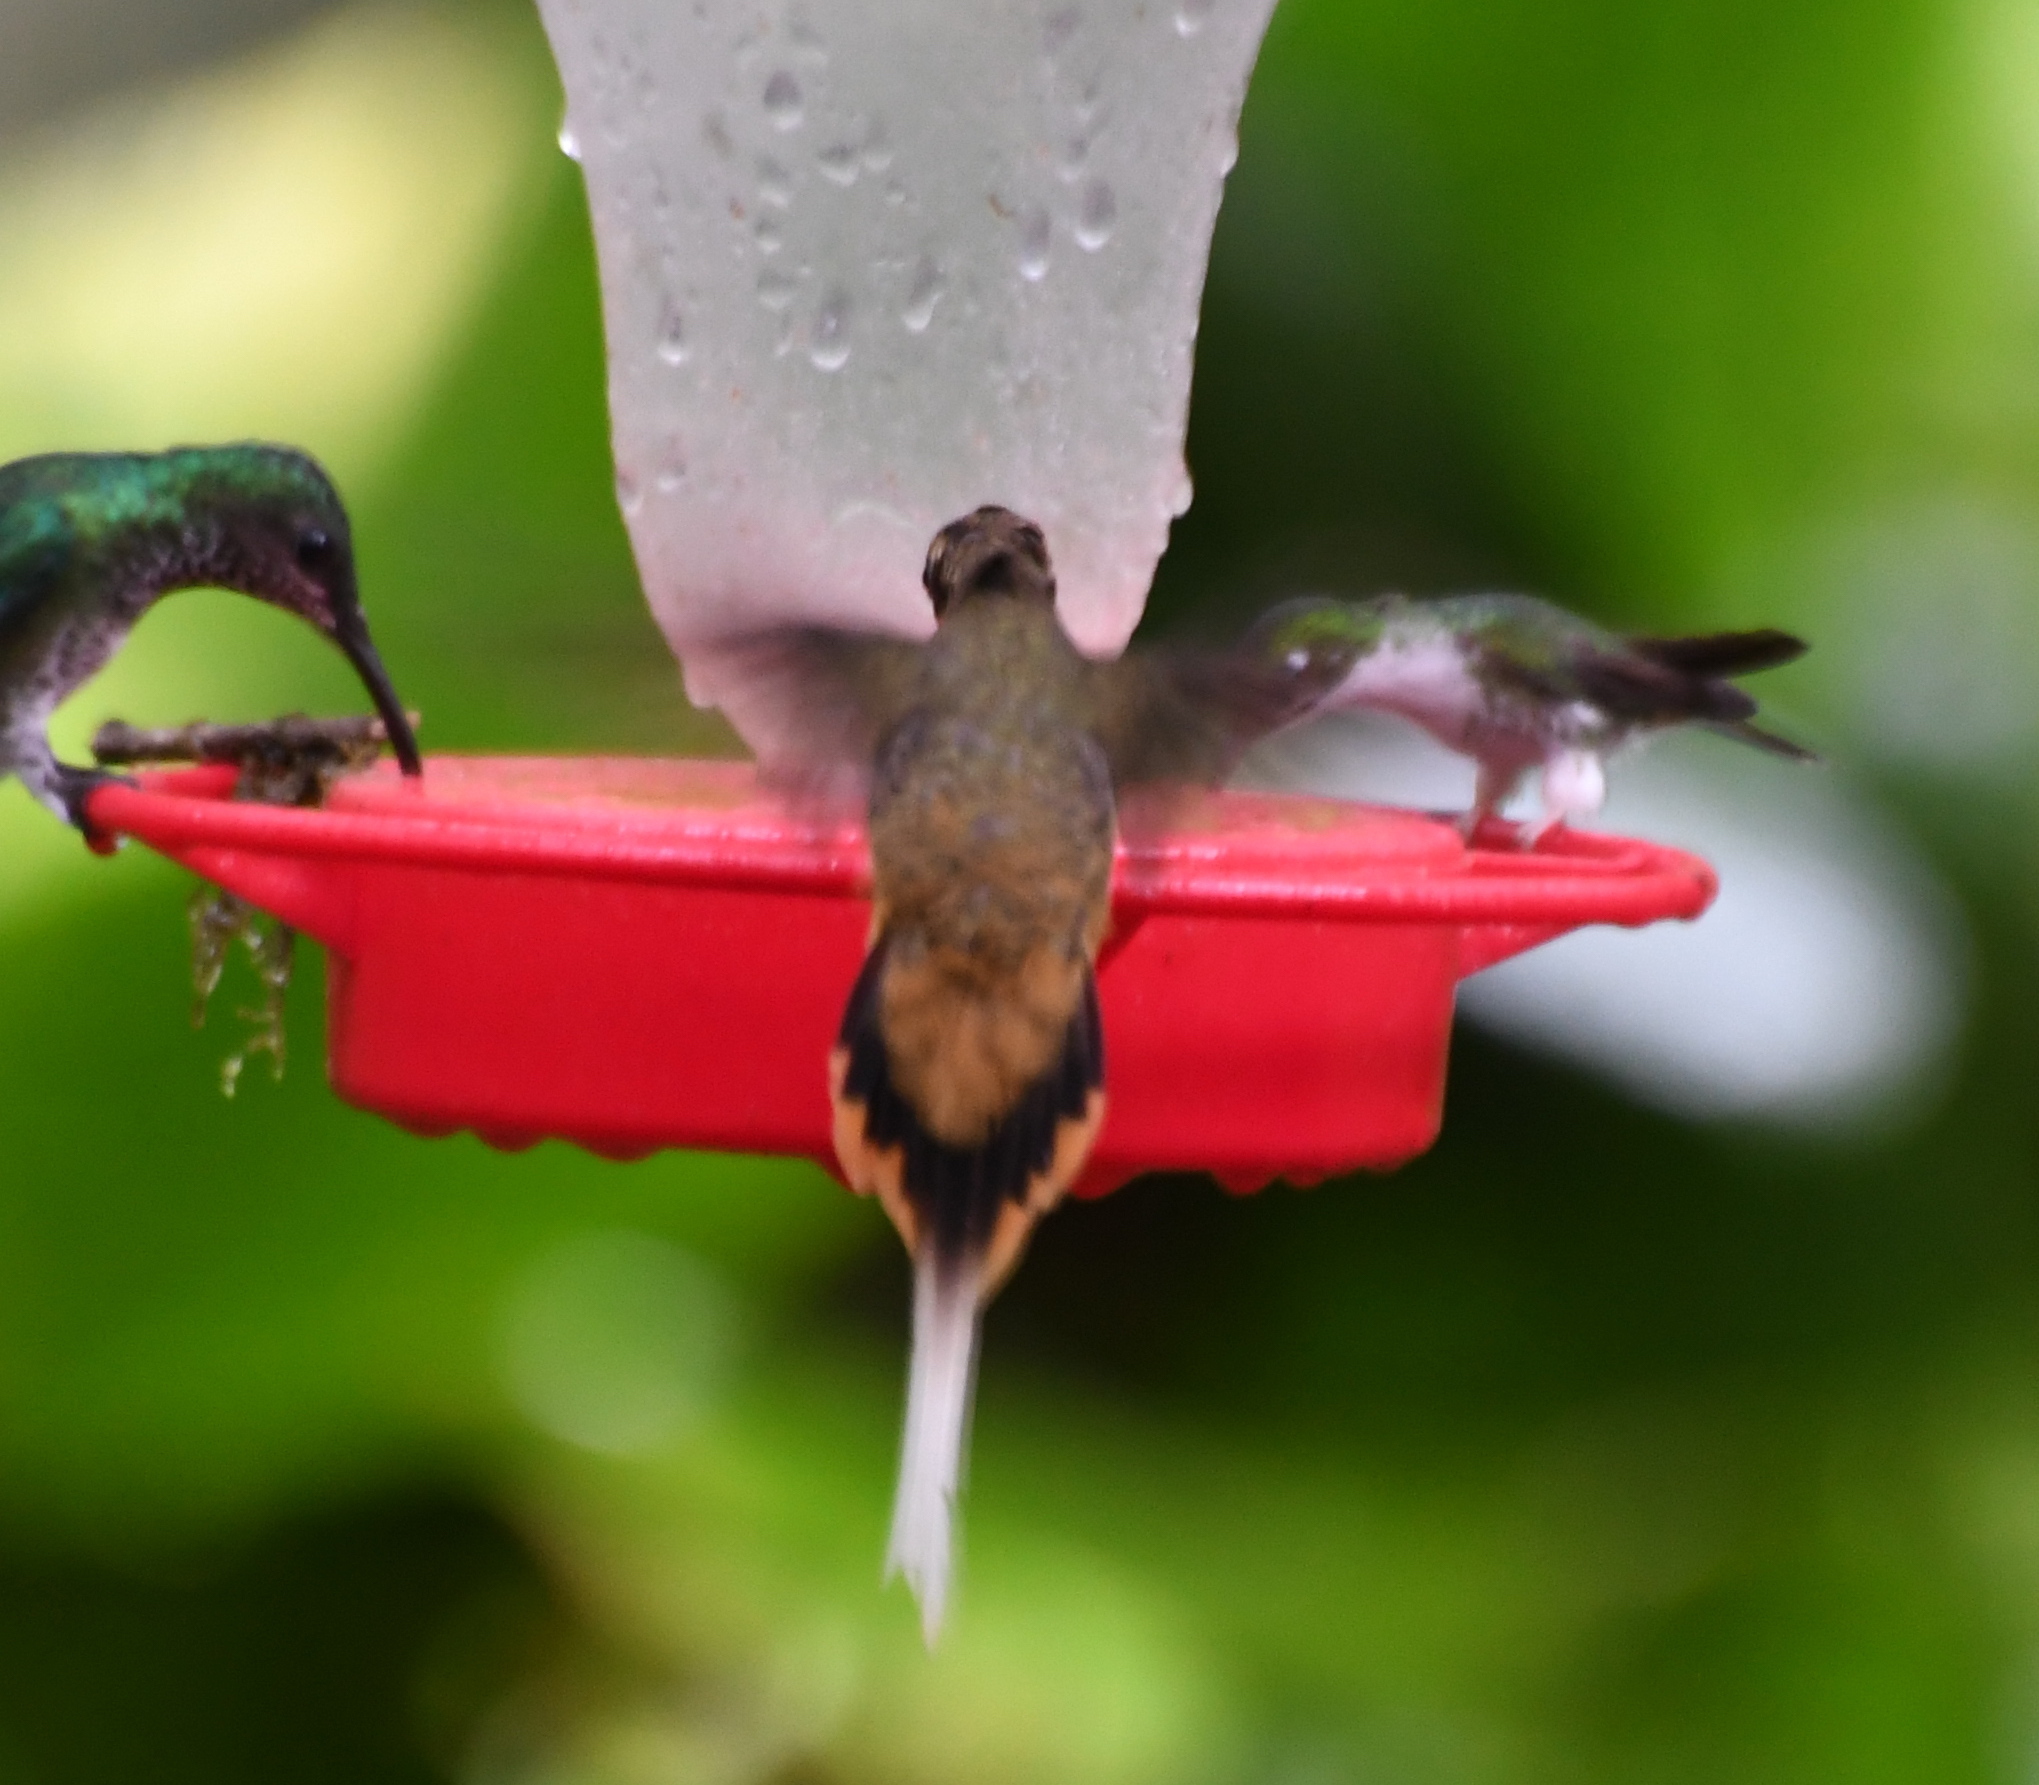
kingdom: Animalia
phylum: Chordata
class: Aves
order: Apodiformes
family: Trochilidae
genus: Phaethornis
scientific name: Phaethornis syrmatophorus
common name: Tawny-bellied hermit
